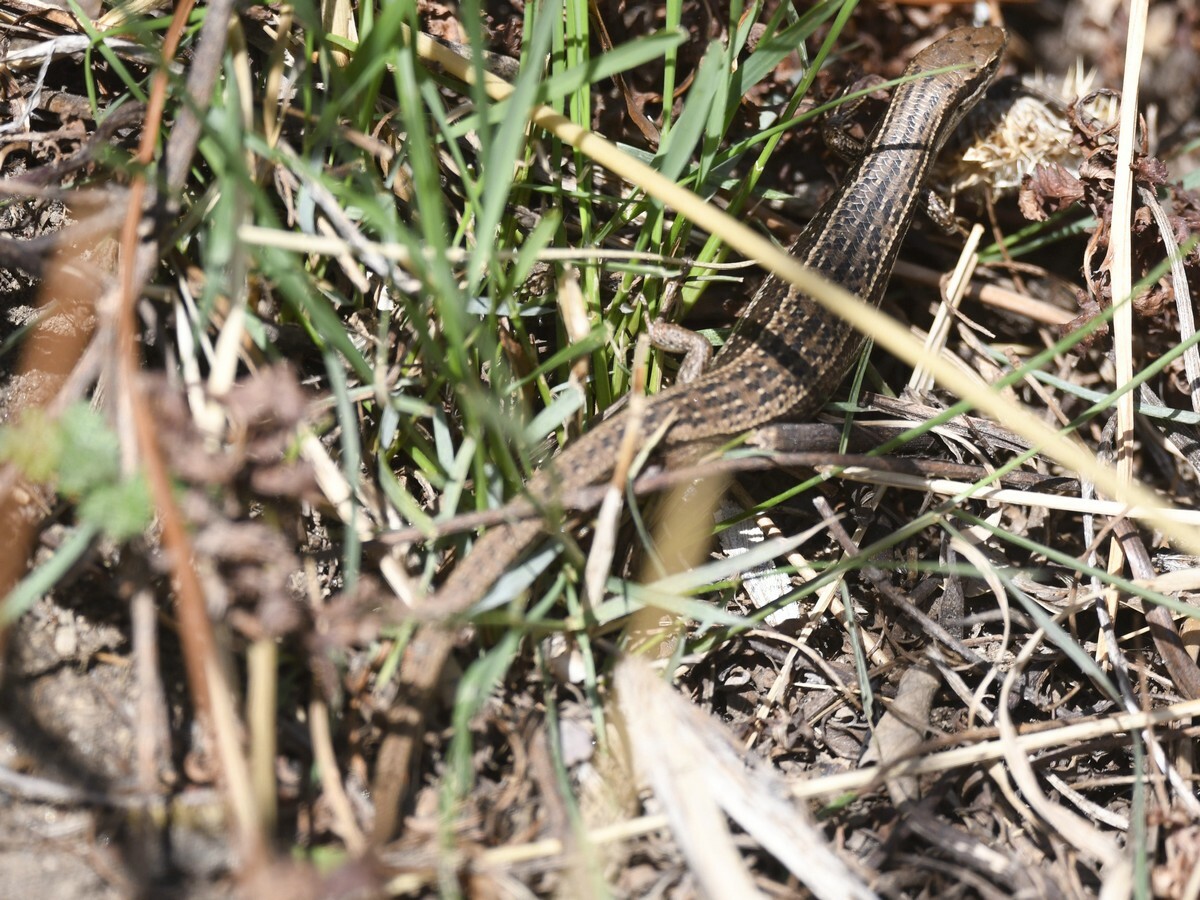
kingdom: Animalia
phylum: Chordata
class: Squamata
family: Scincidae
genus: Asymblepharus
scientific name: Asymblepharus himalayanus
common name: Himalaya ground skink
